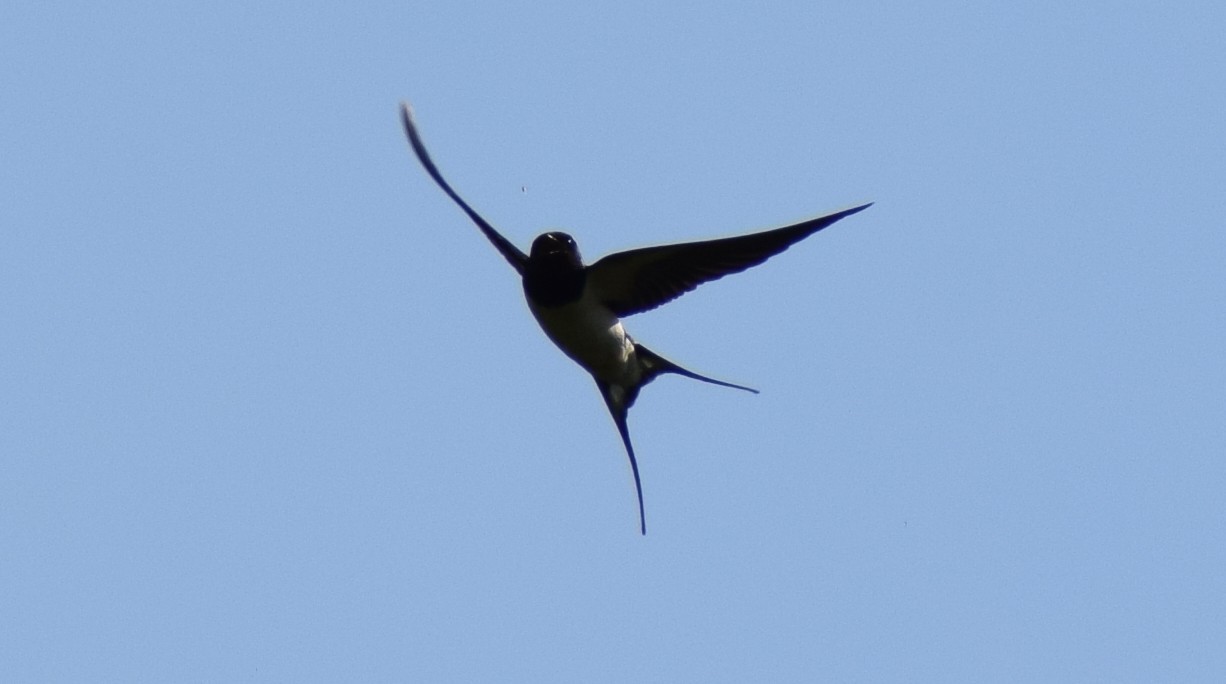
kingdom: Animalia
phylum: Chordata
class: Aves
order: Passeriformes
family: Hirundinidae
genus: Hirundo
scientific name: Hirundo rustica
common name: Barn swallow
